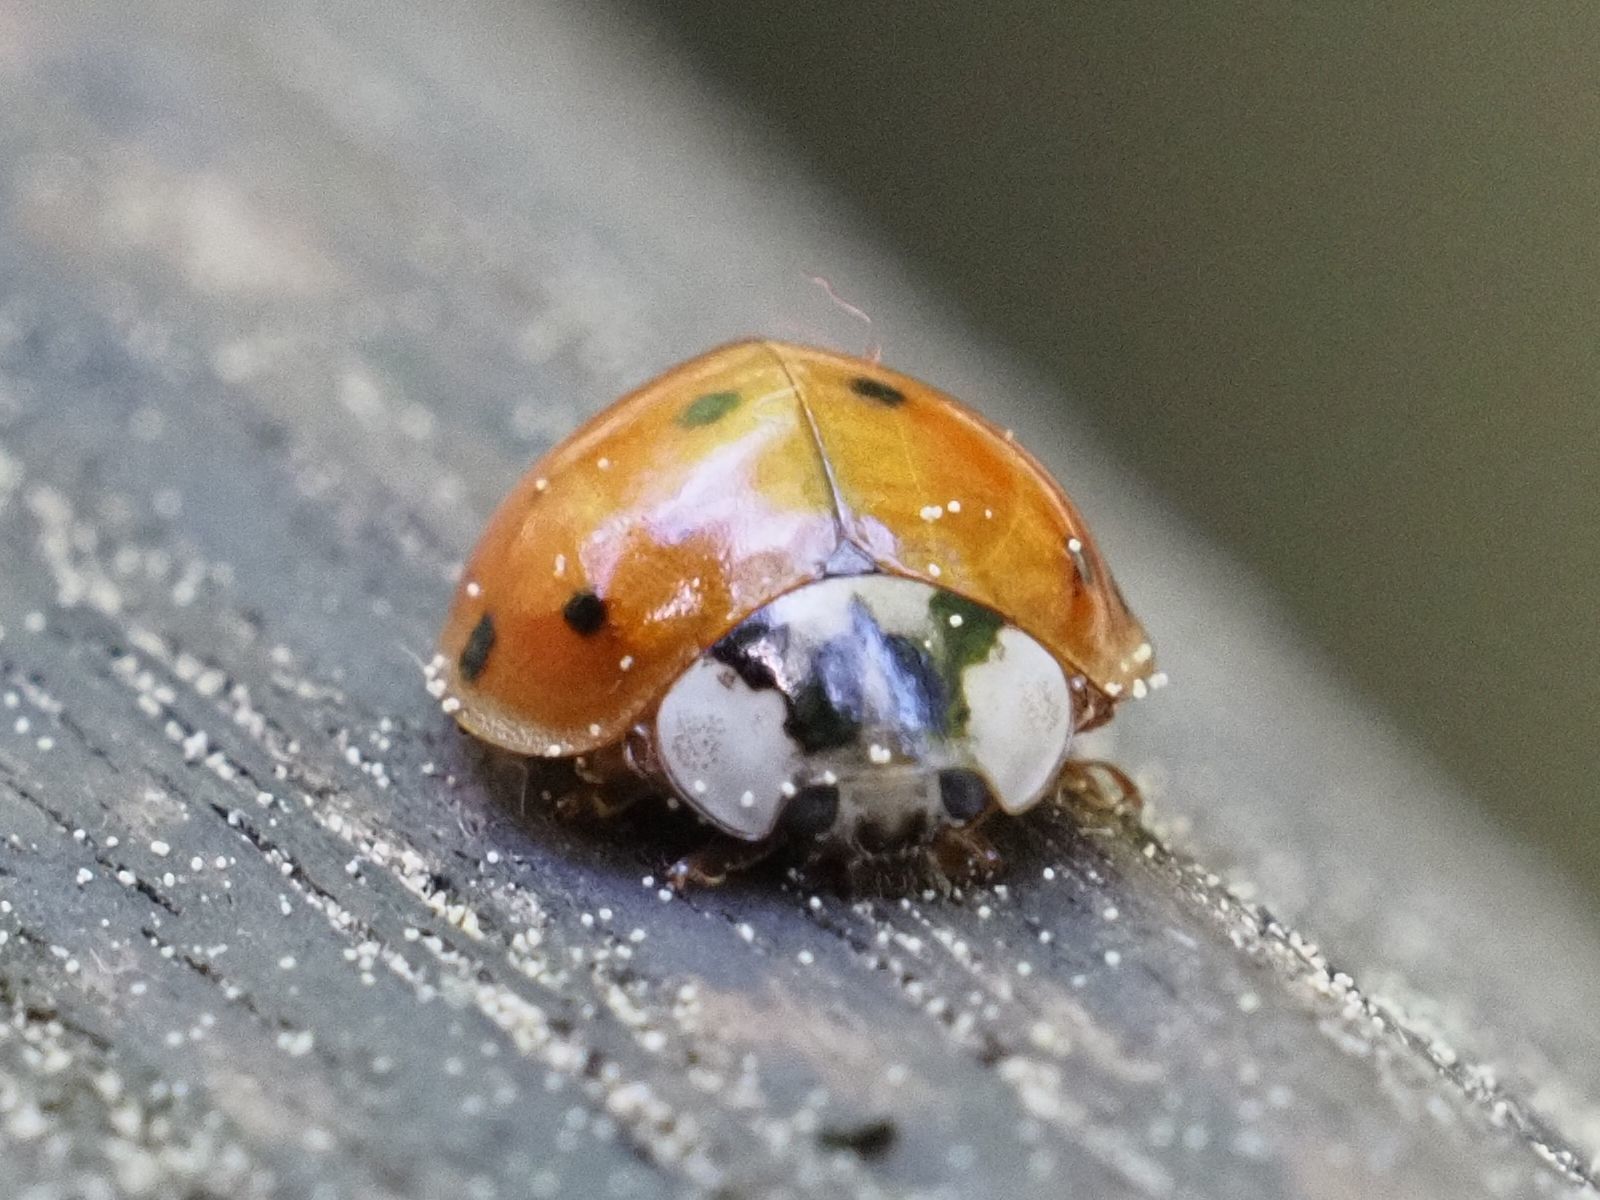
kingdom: Animalia
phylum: Arthropoda
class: Insecta
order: Coleoptera
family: Coccinellidae
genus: Harmonia
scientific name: Harmonia axyridis
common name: Harlequin ladybird
